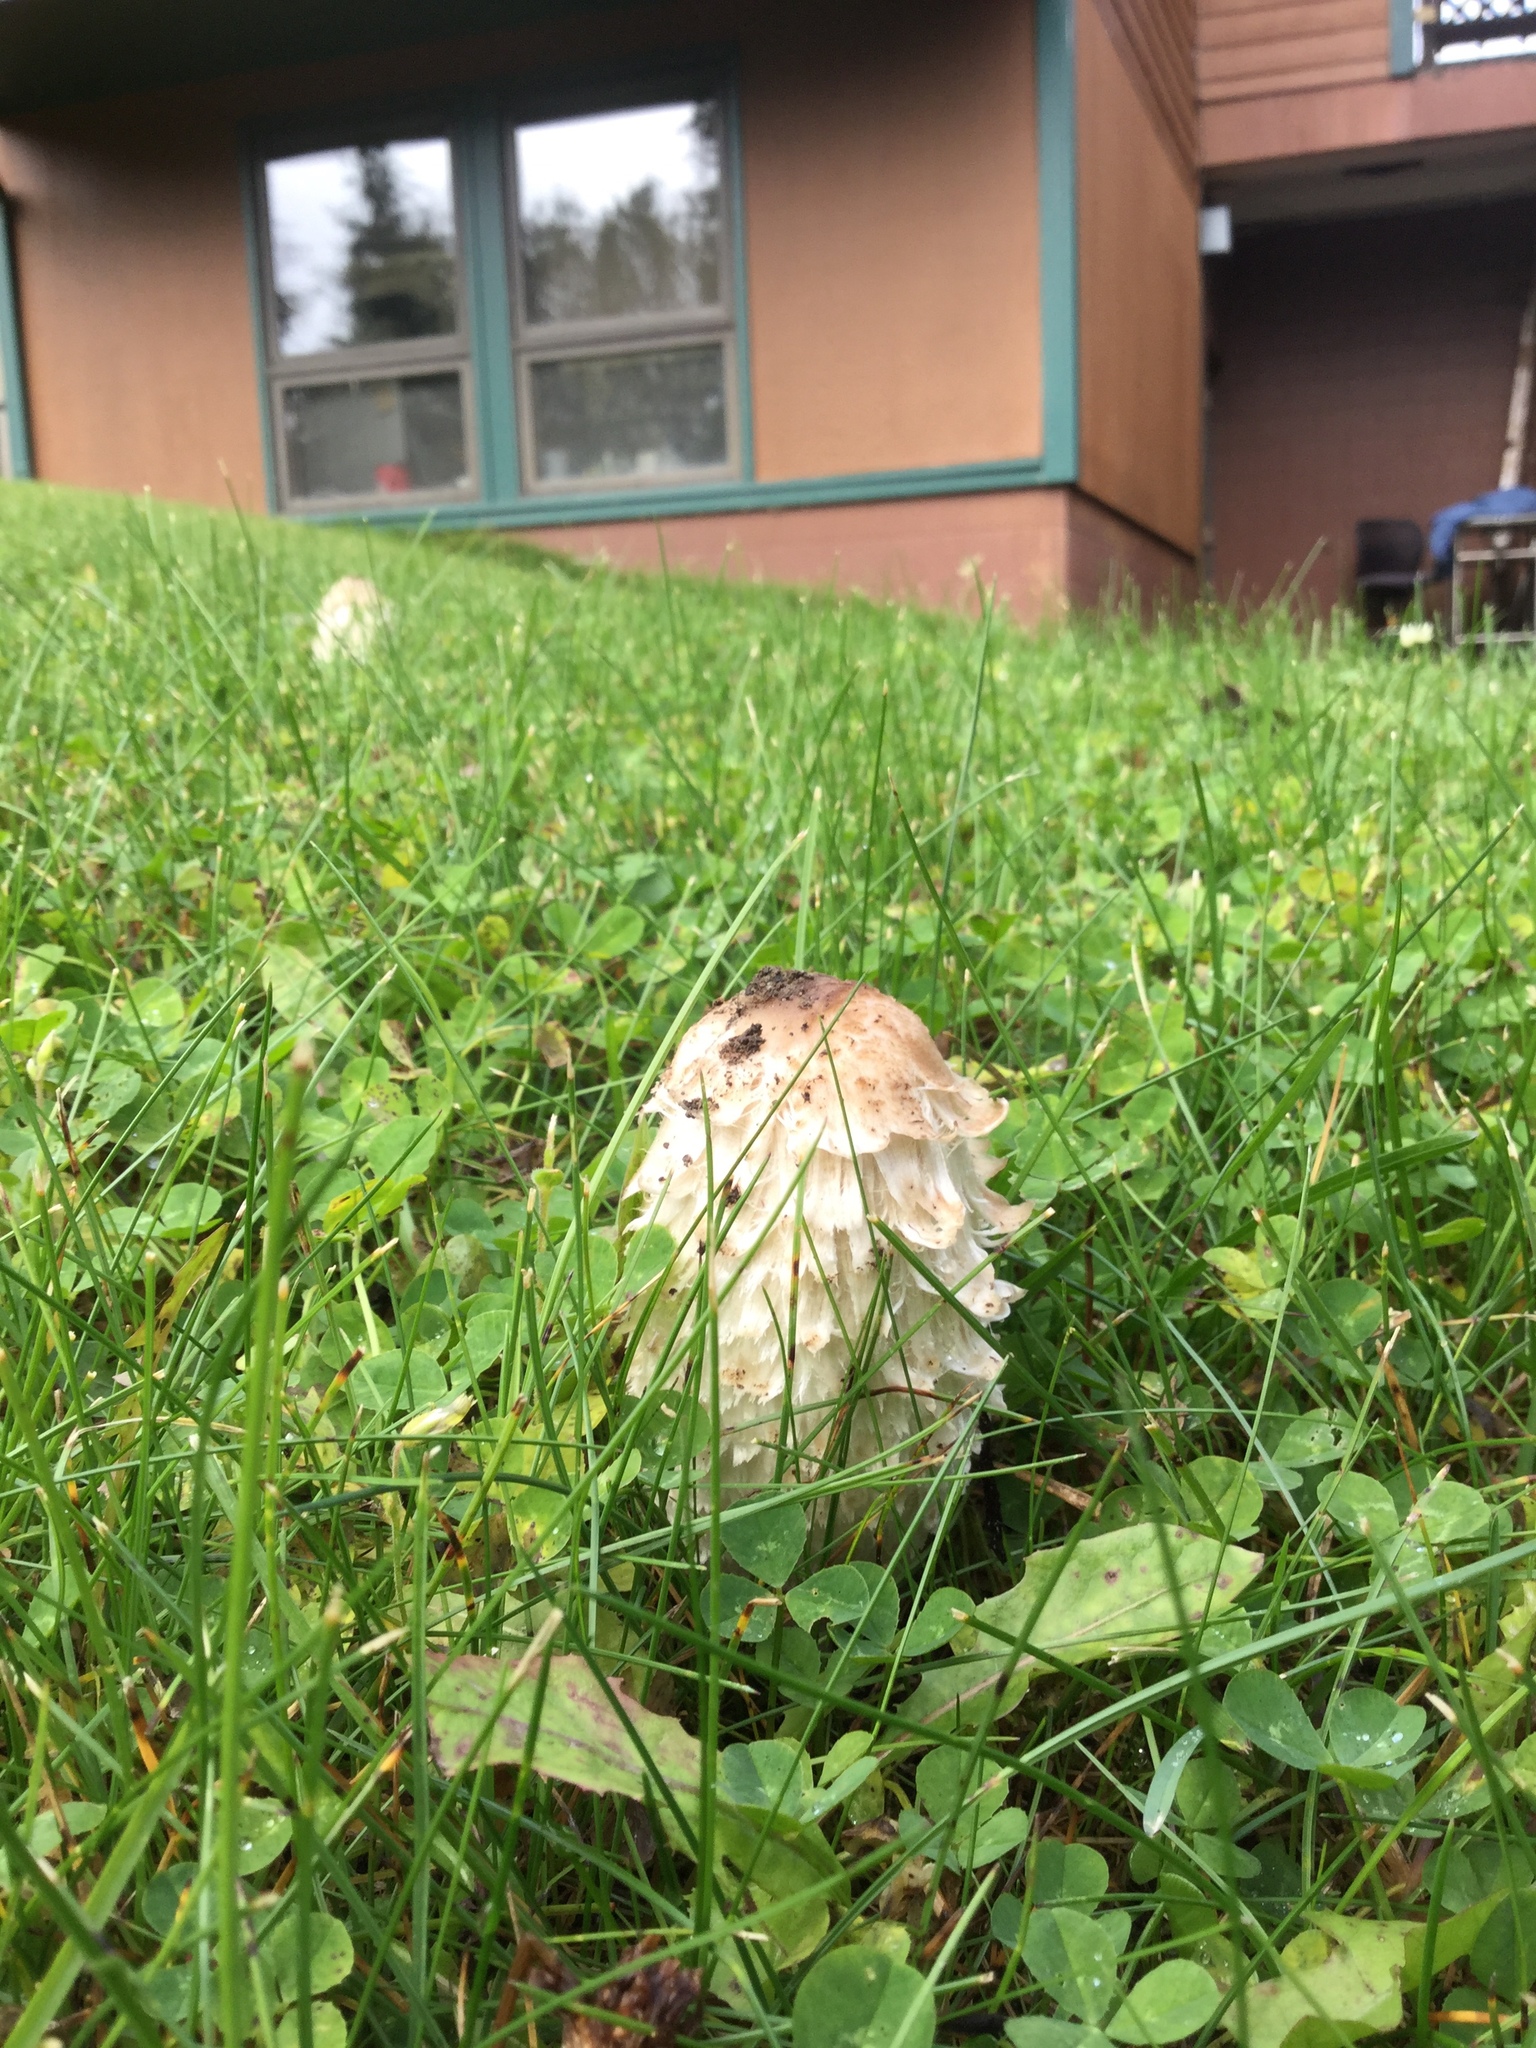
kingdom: Fungi
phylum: Basidiomycota
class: Agaricomycetes
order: Agaricales
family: Agaricaceae
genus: Coprinus
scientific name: Coprinus comatus
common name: Lawyer's wig
